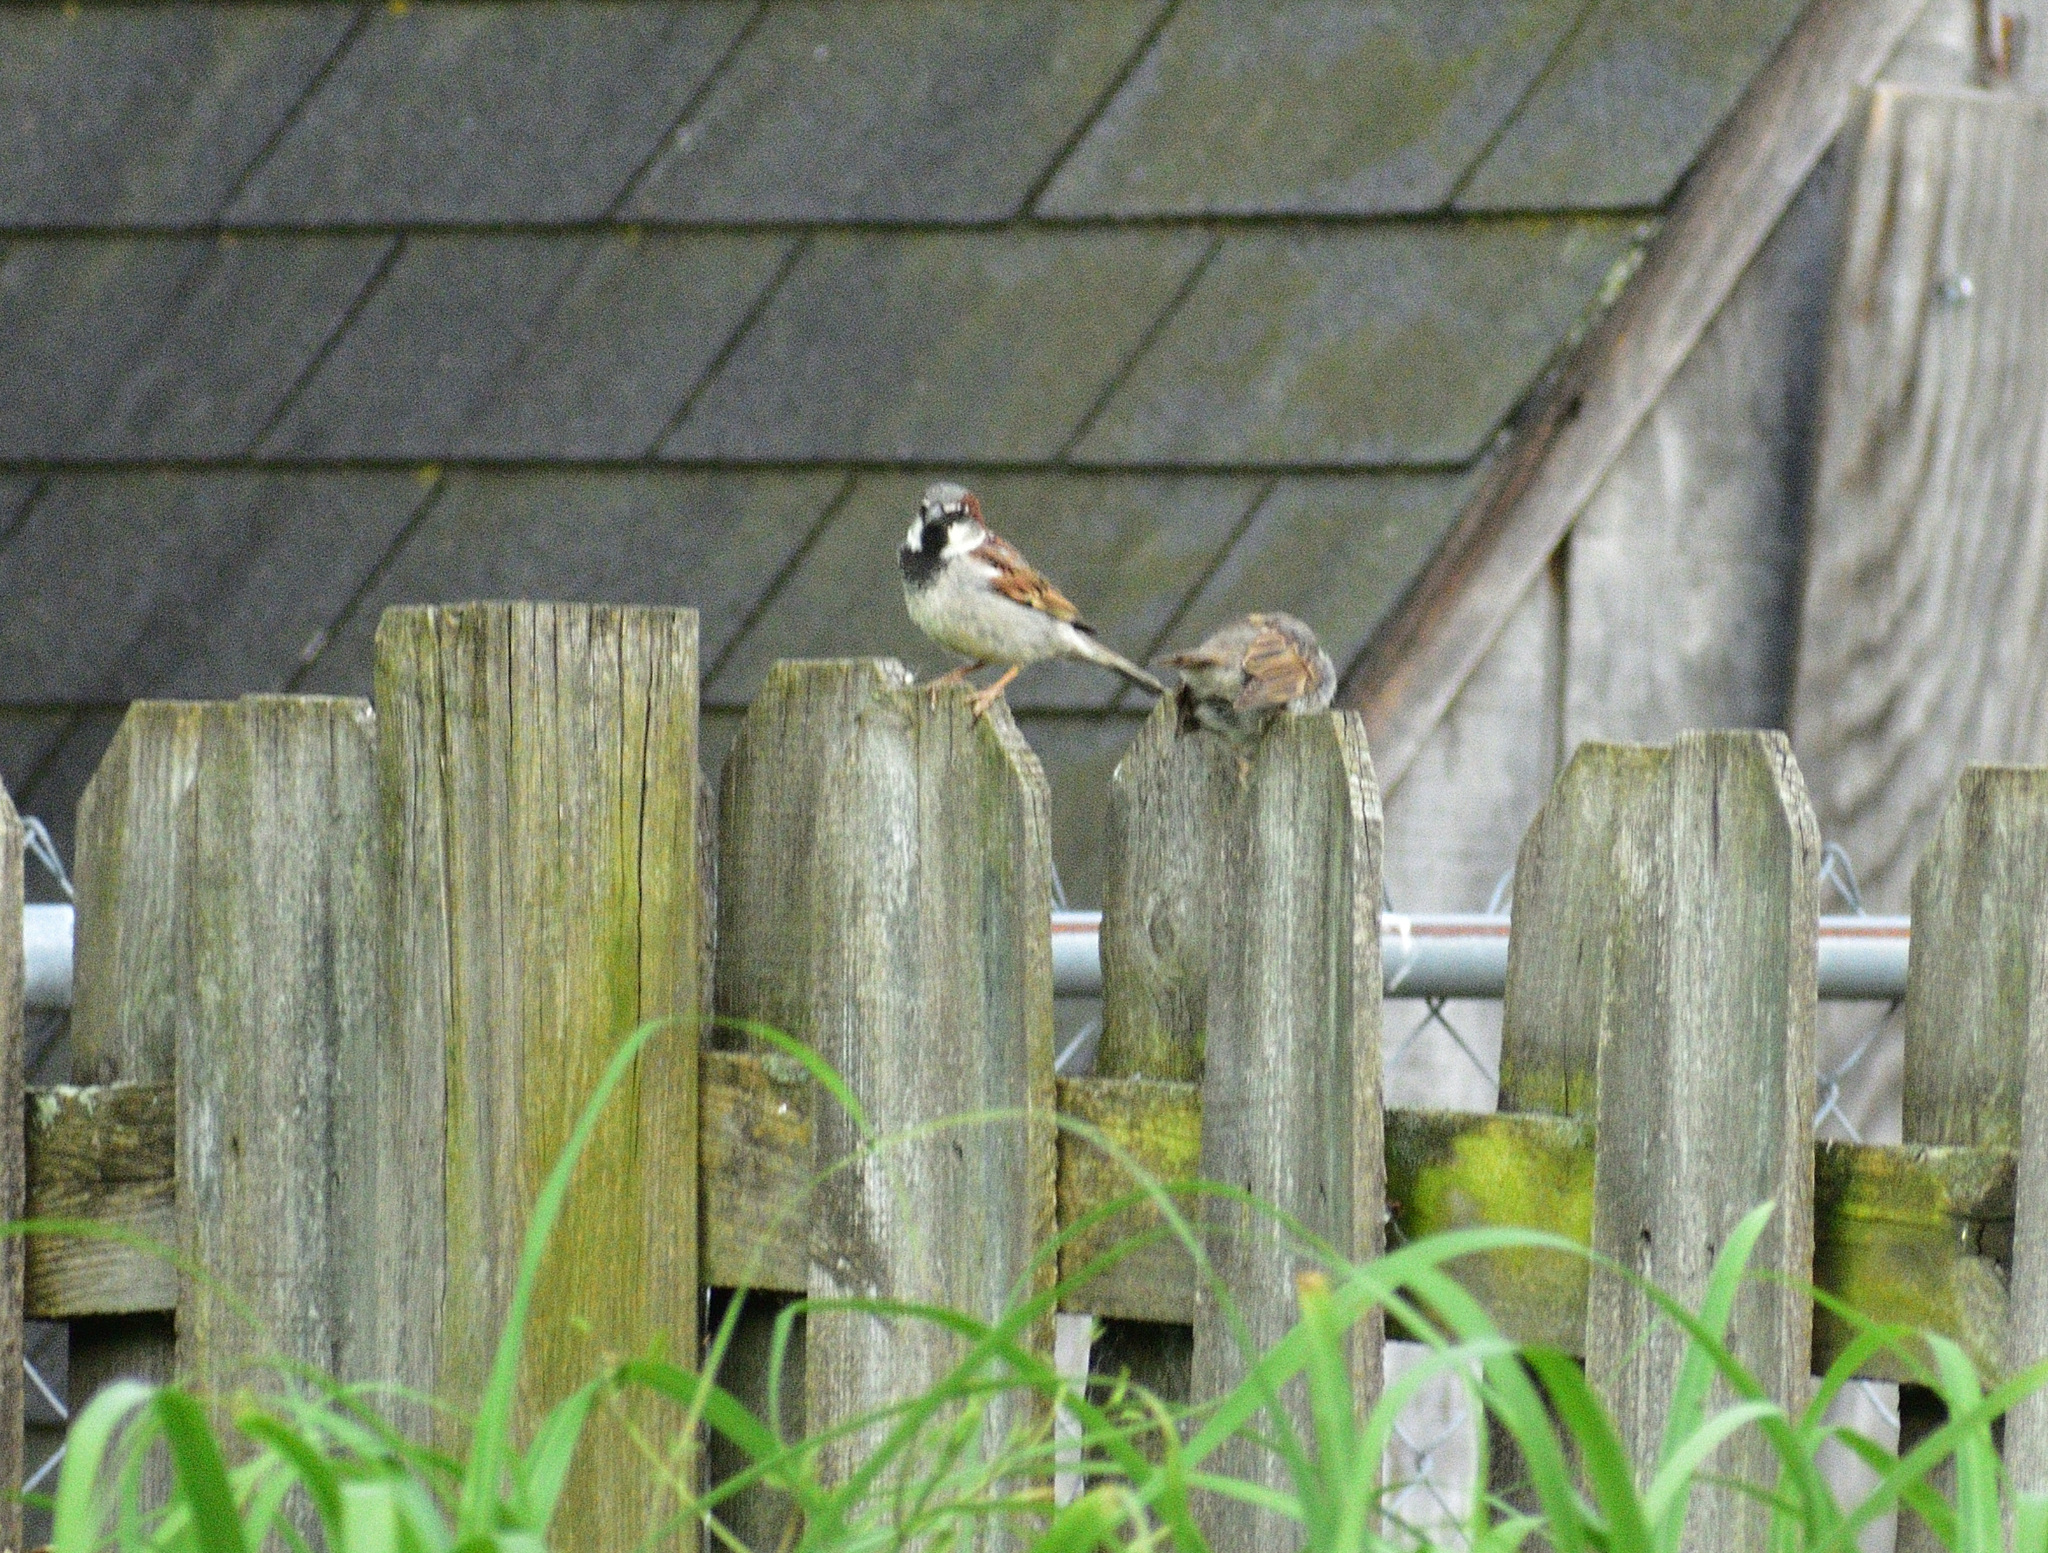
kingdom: Animalia
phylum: Chordata
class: Aves
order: Passeriformes
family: Passeridae
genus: Passer
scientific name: Passer domesticus
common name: House sparrow
